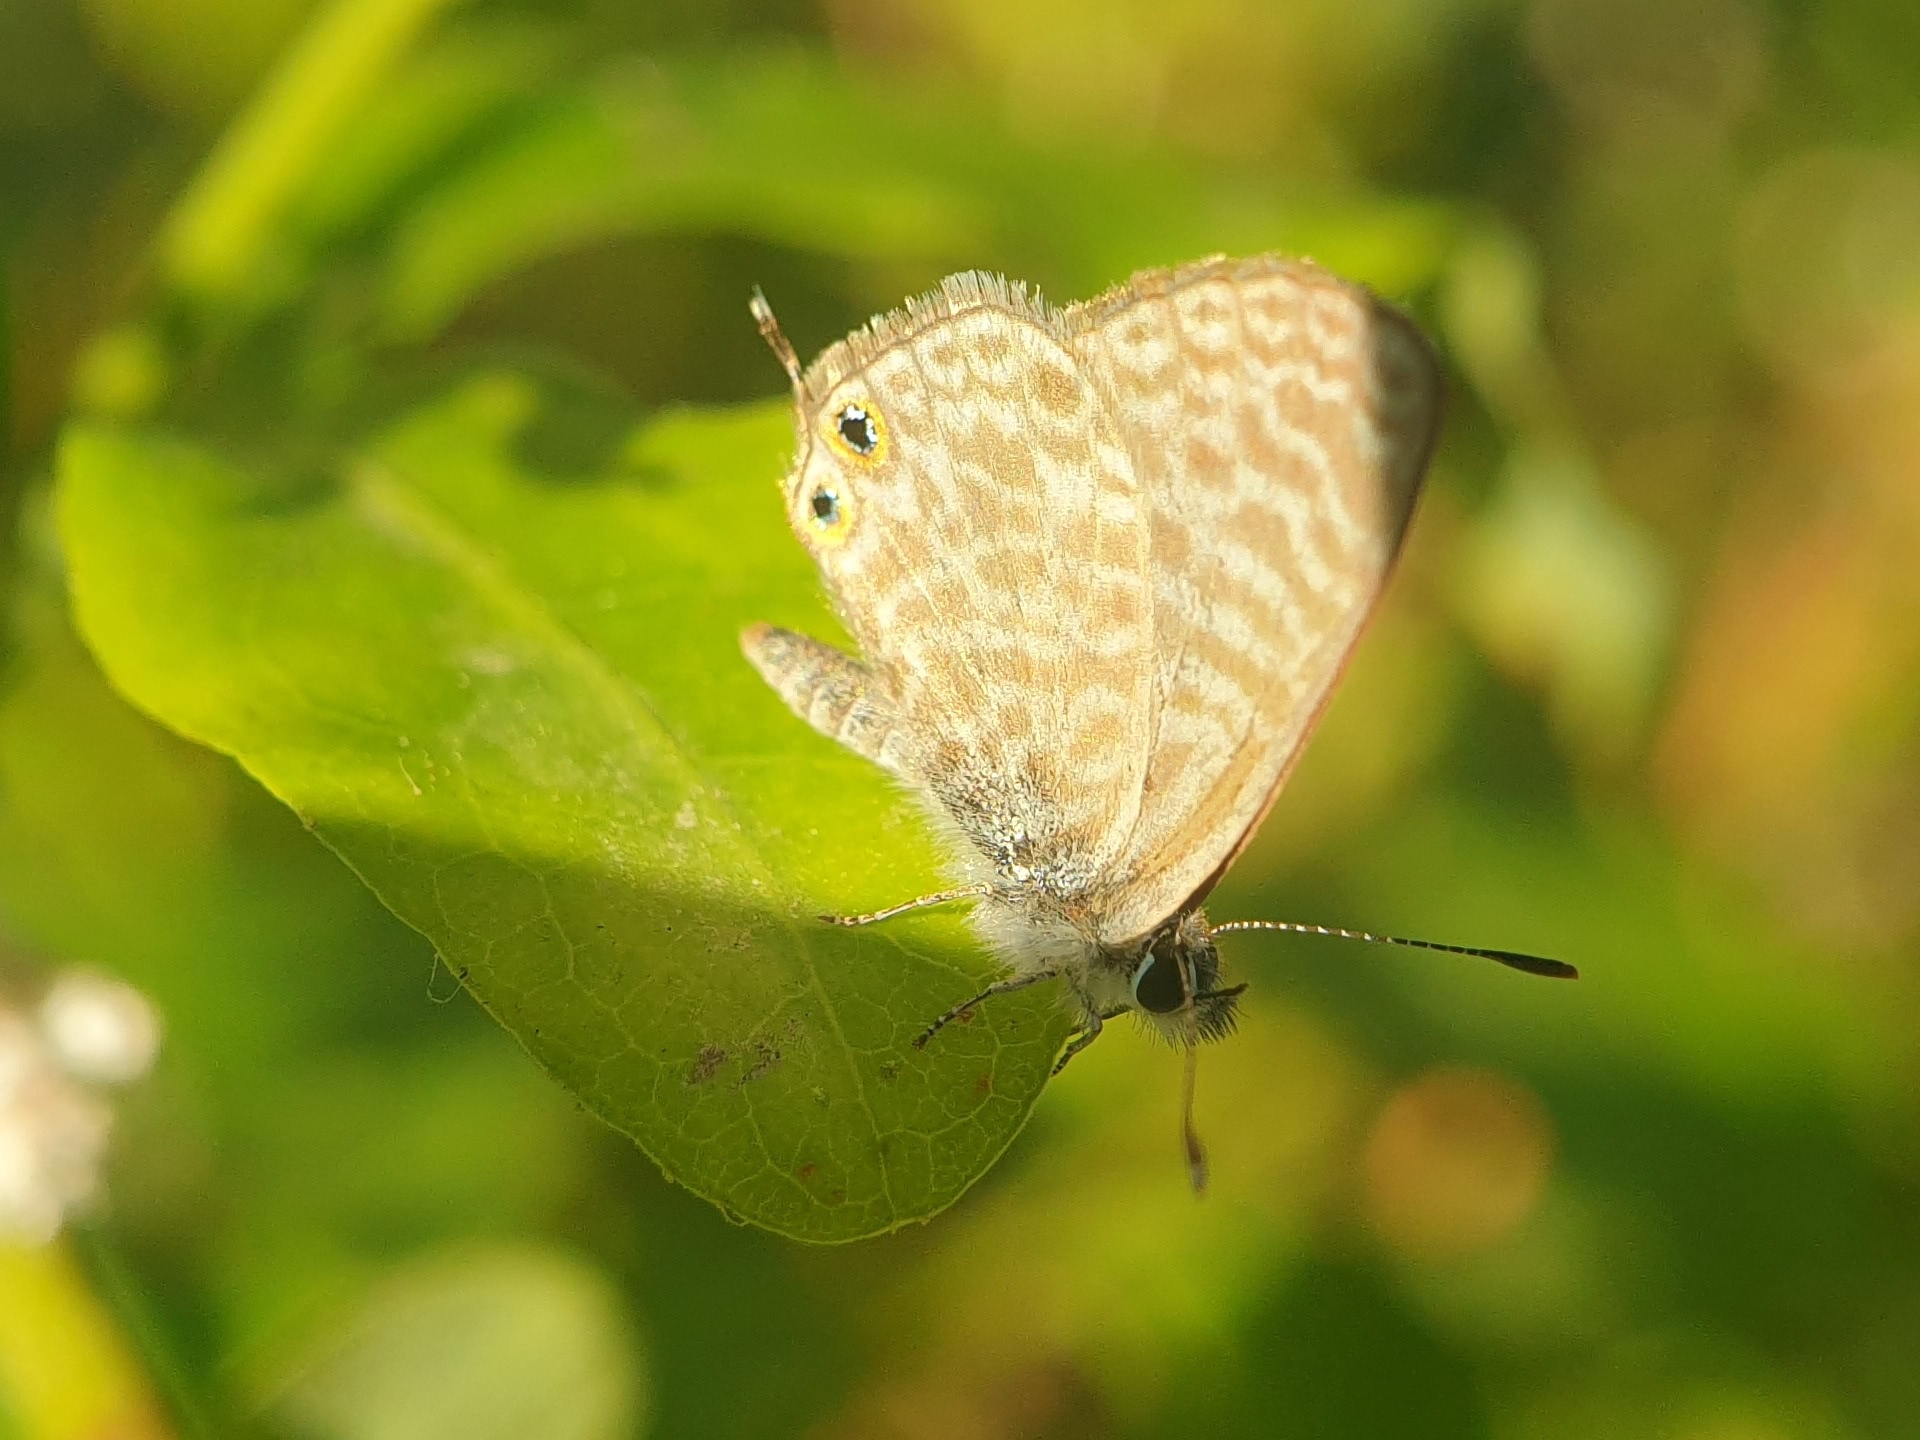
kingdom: Animalia
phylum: Arthropoda
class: Insecta
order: Lepidoptera
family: Lycaenidae
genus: Leptotes
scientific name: Leptotes pirithous
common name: Lang's short-tailed blue
